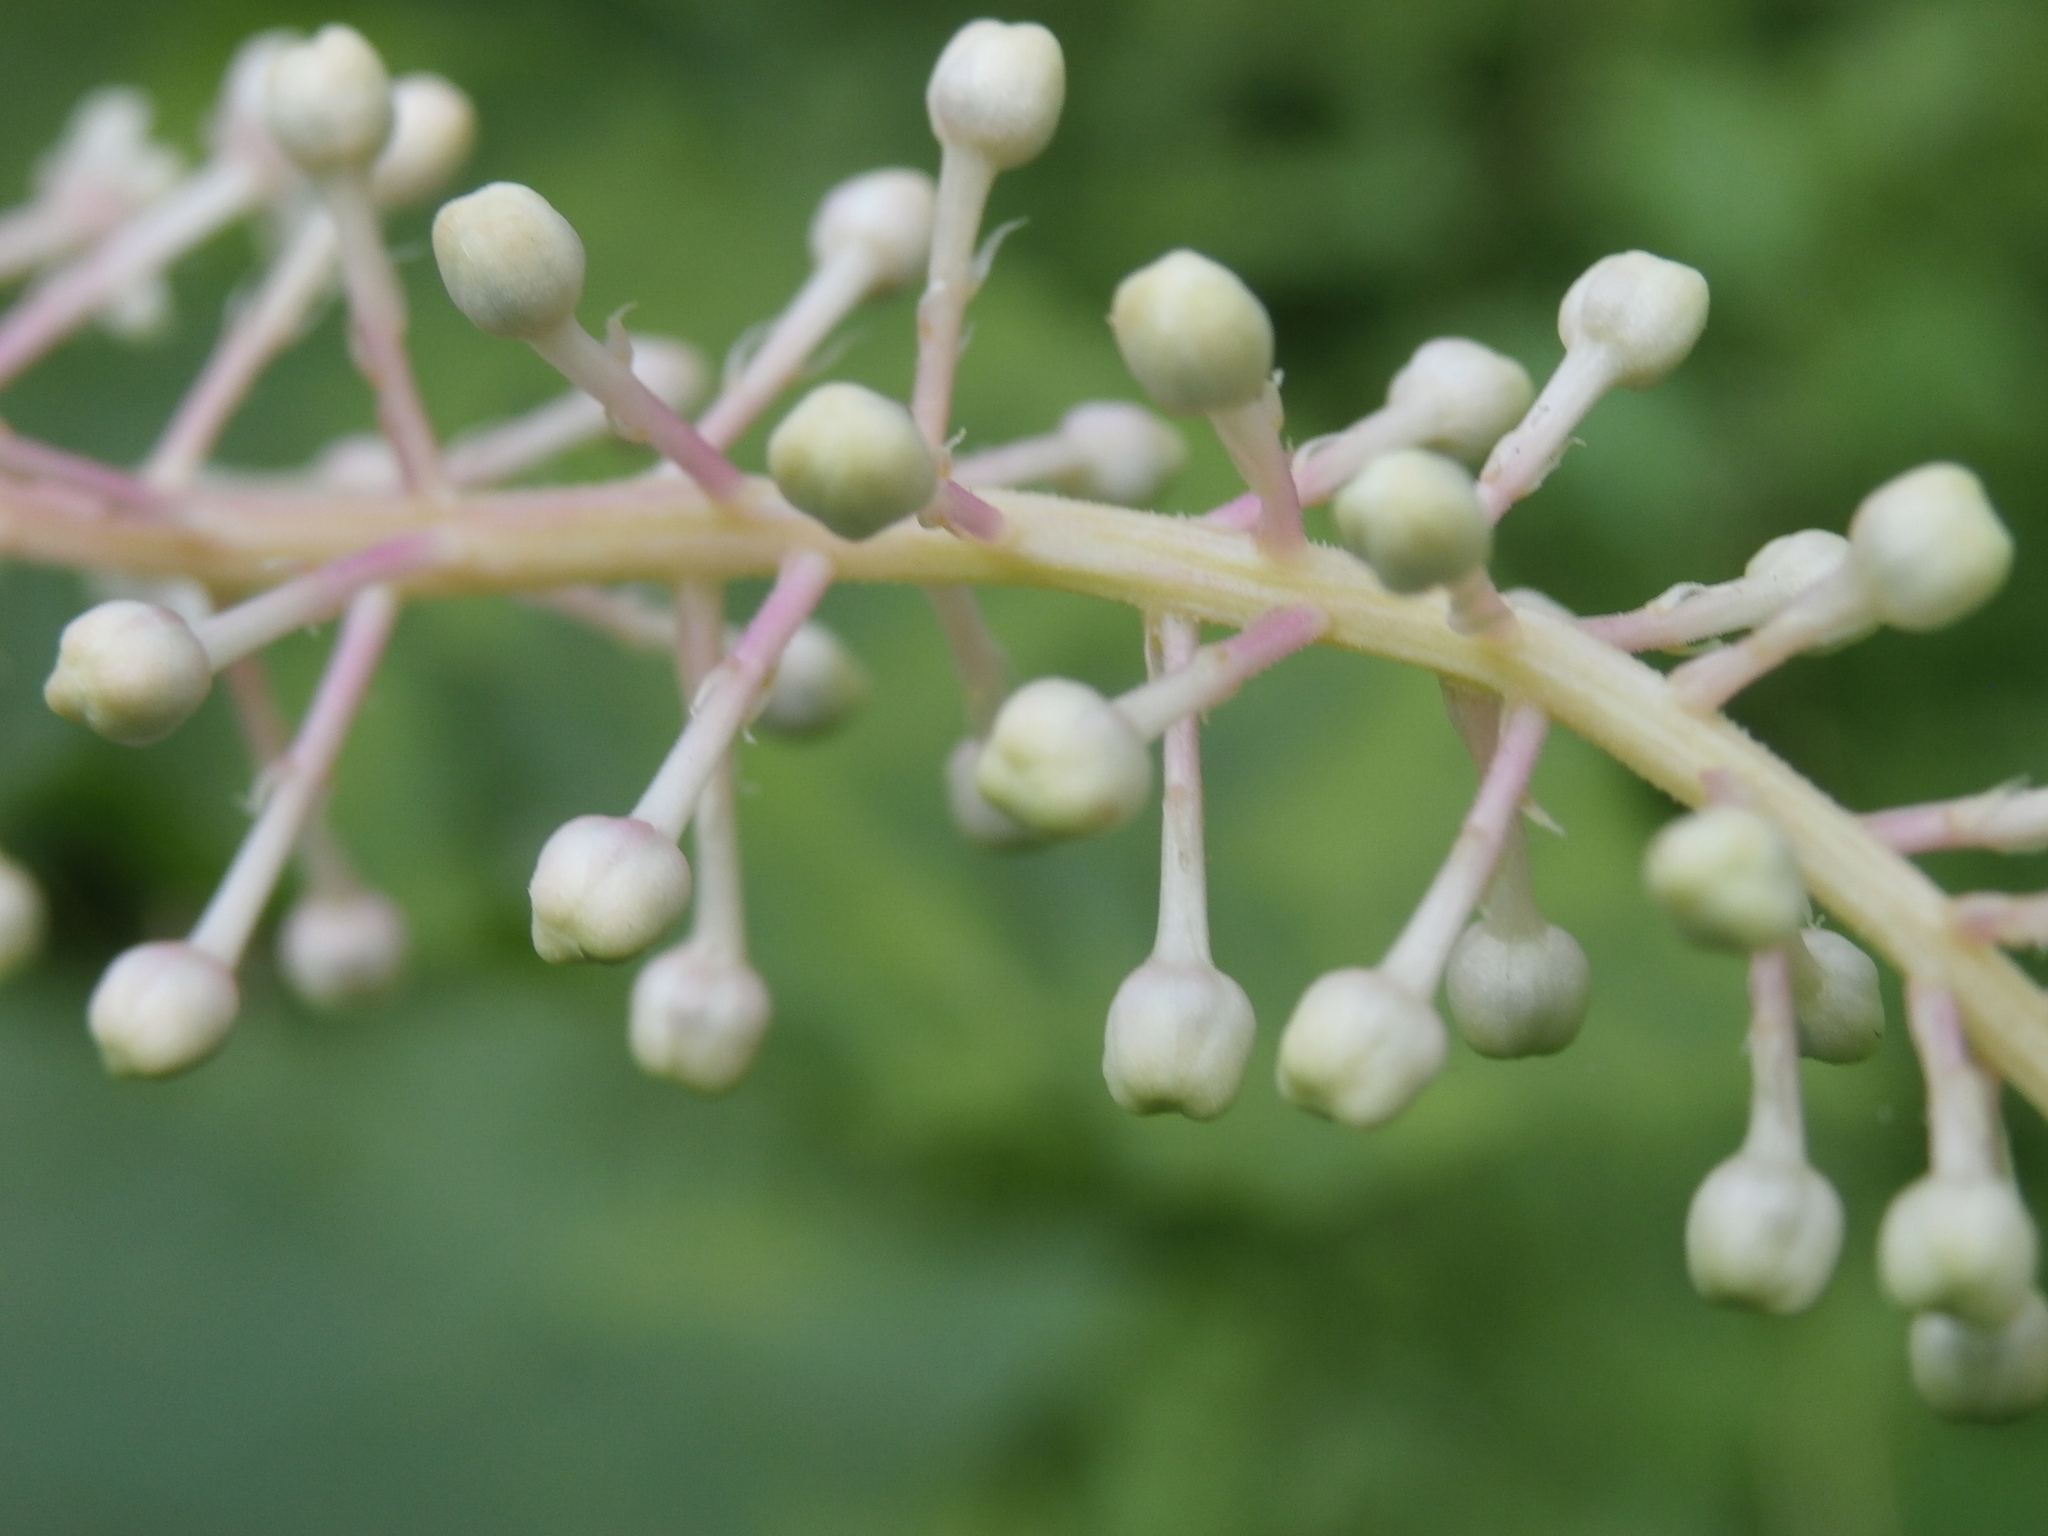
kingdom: Plantae
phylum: Tracheophyta
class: Magnoliopsida
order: Caryophyllales
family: Phytolaccaceae
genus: Phytolacca
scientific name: Phytolacca americana
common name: American pokeweed
